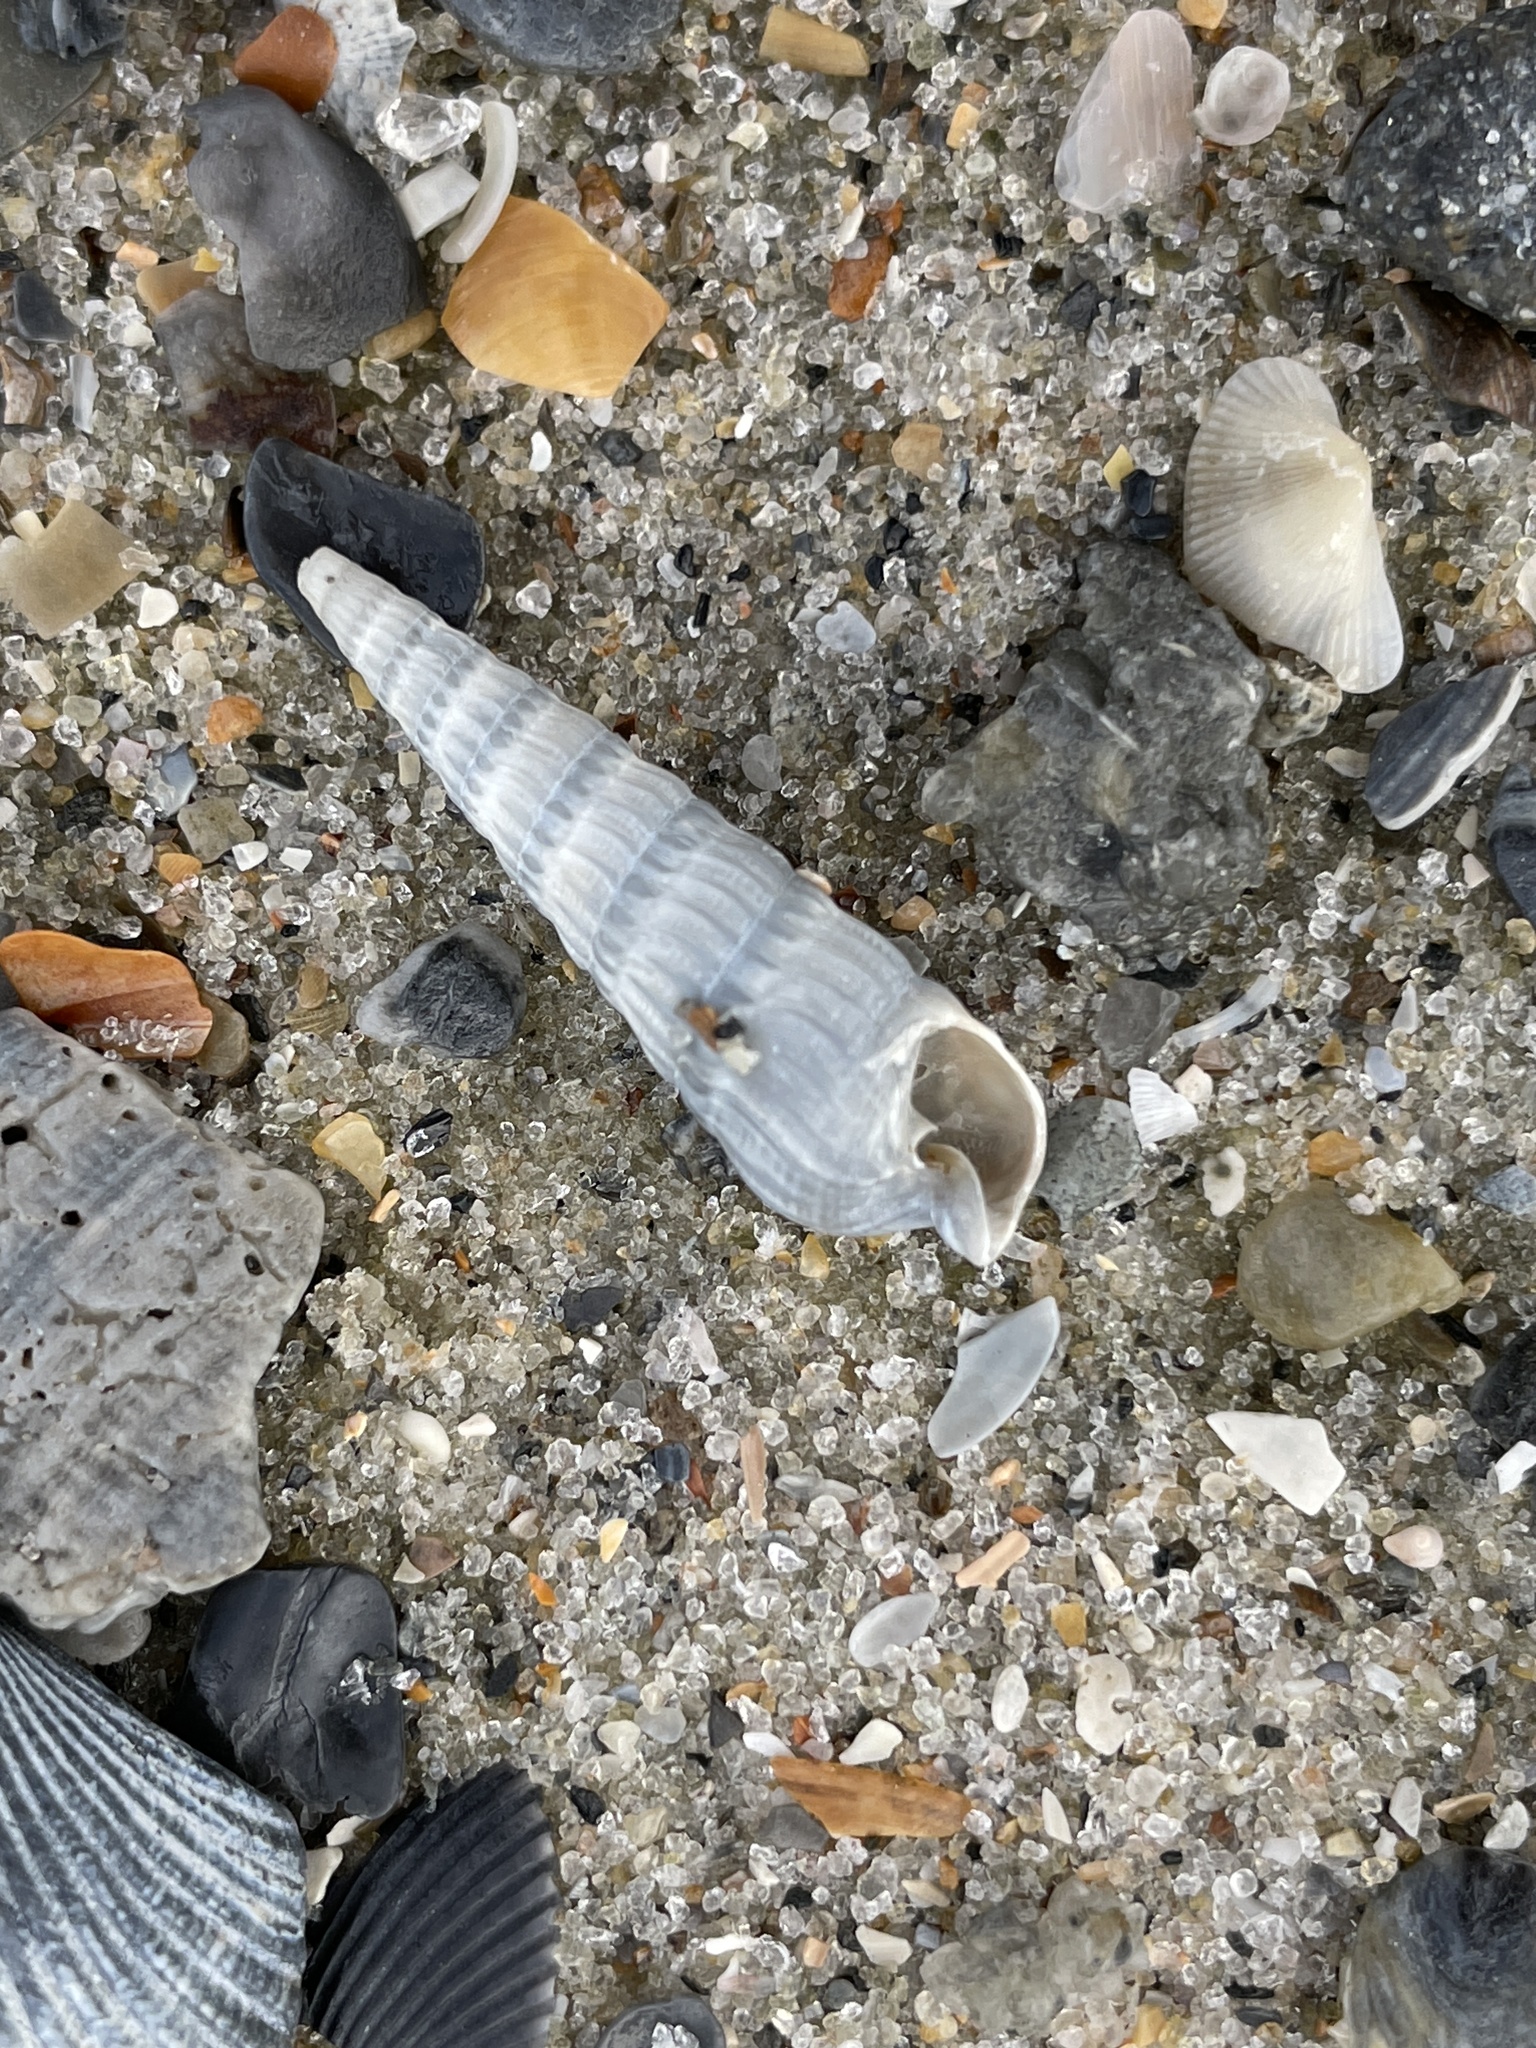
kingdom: Animalia
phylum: Mollusca
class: Gastropoda
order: Neogastropoda
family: Terebridae
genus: Neoterebra
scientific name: Neoterebra dislocata
